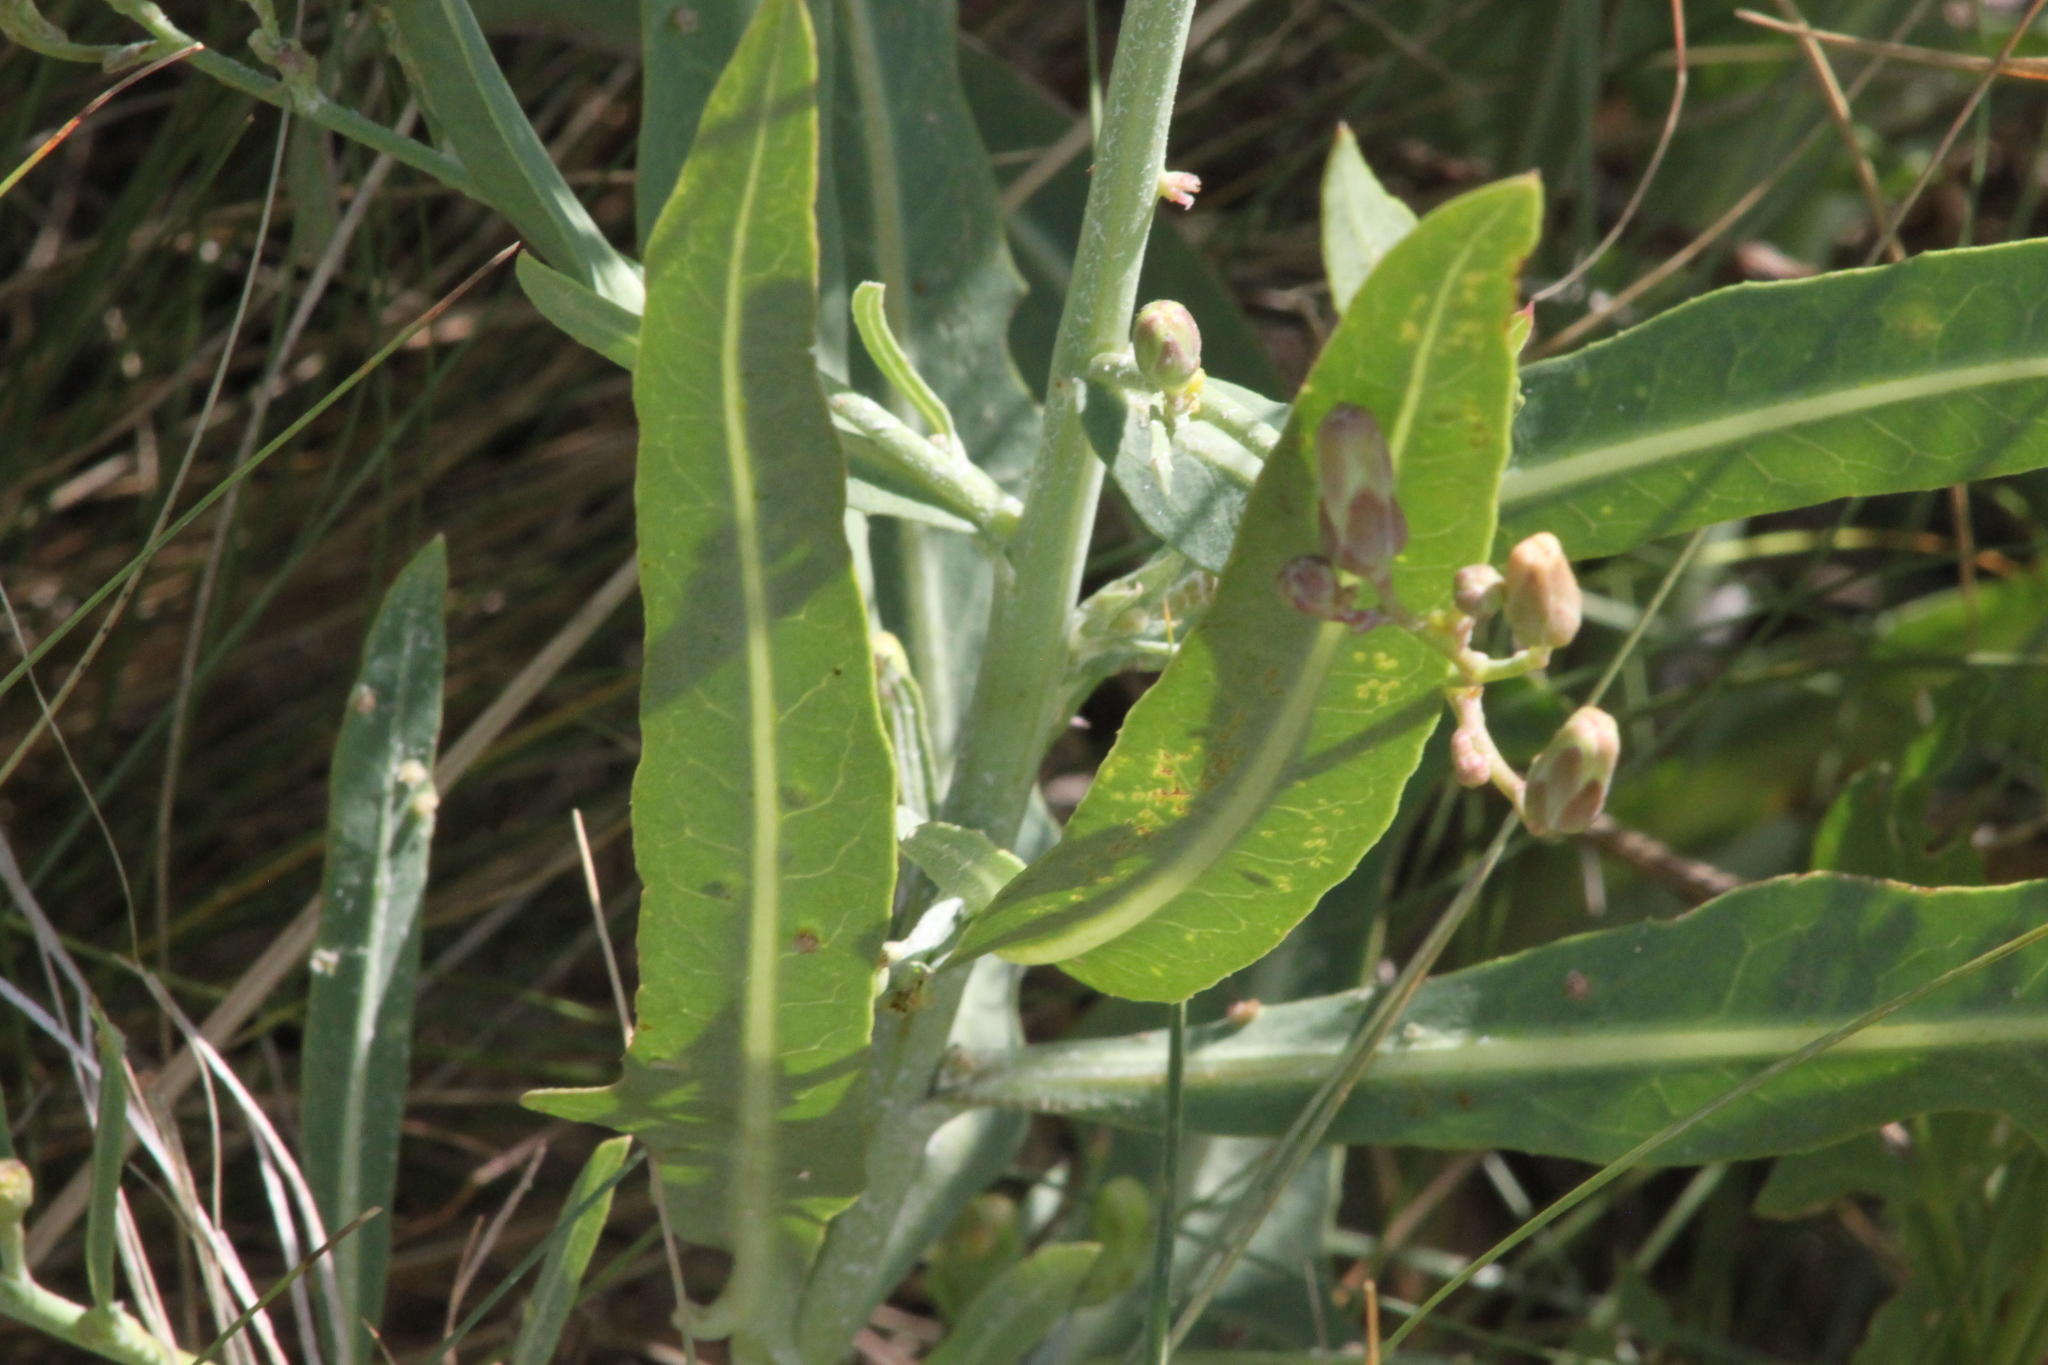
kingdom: Plantae
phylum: Tracheophyta
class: Magnoliopsida
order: Asterales
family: Asteraceae
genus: Lactuca
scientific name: Lactuca tatarica
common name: Blue lettuce
